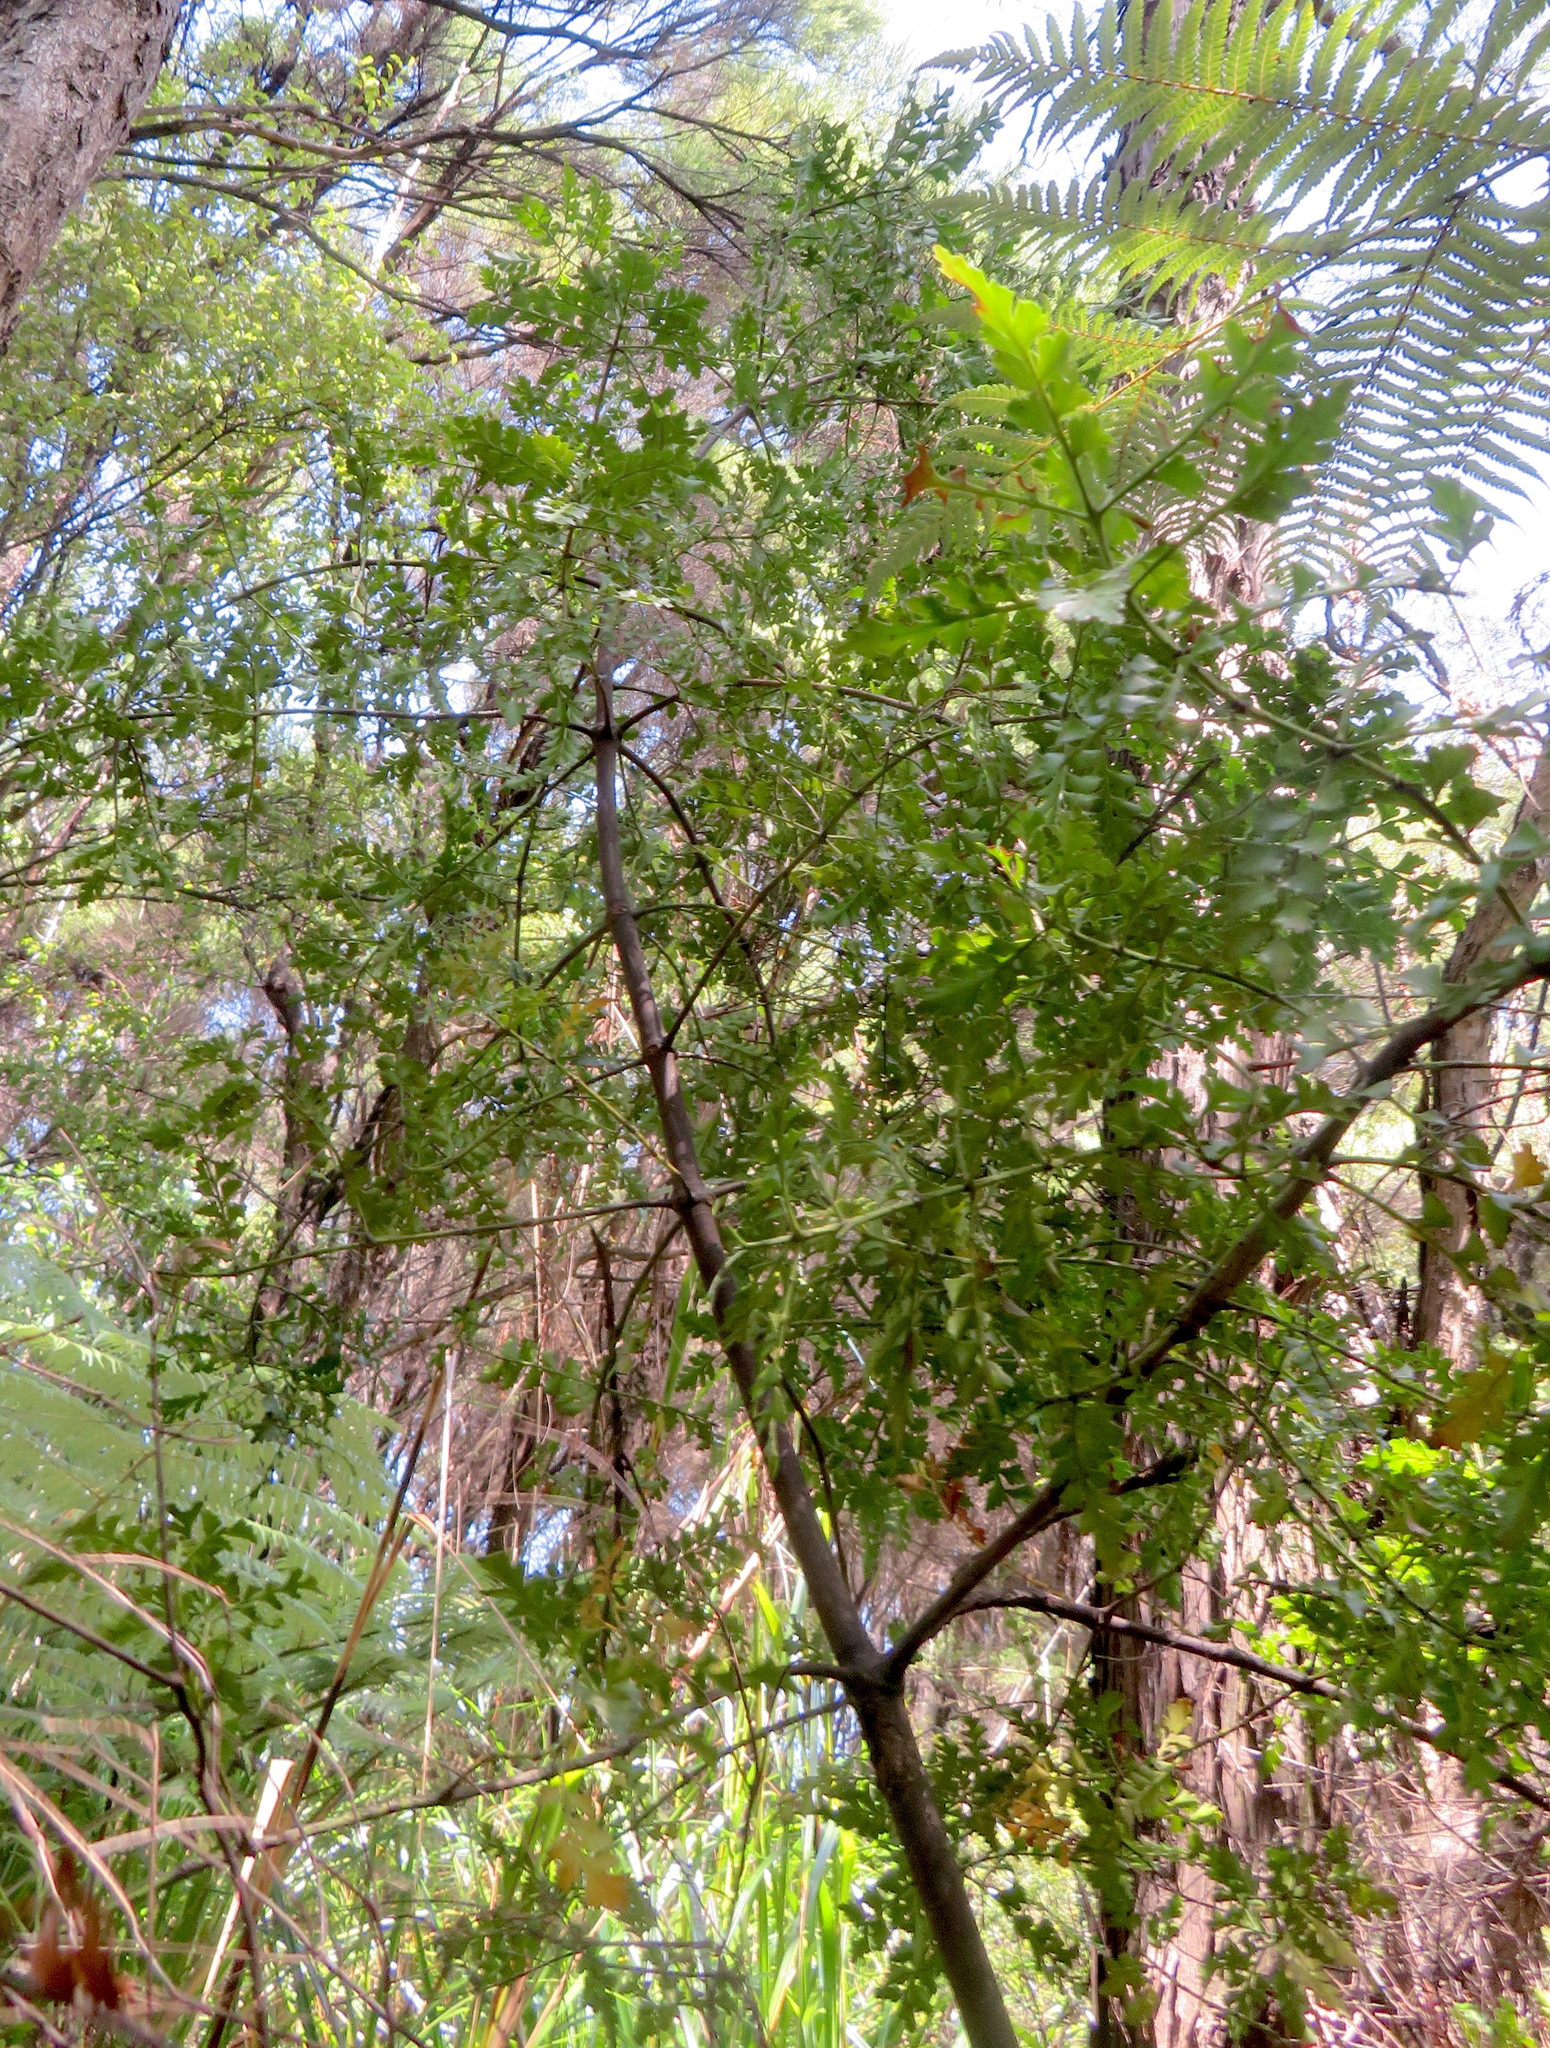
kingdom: Plantae
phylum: Tracheophyta
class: Pinopsida
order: Pinales
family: Phyllocladaceae
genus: Phyllocladus
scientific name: Phyllocladus trichomanoides
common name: Celery pine
